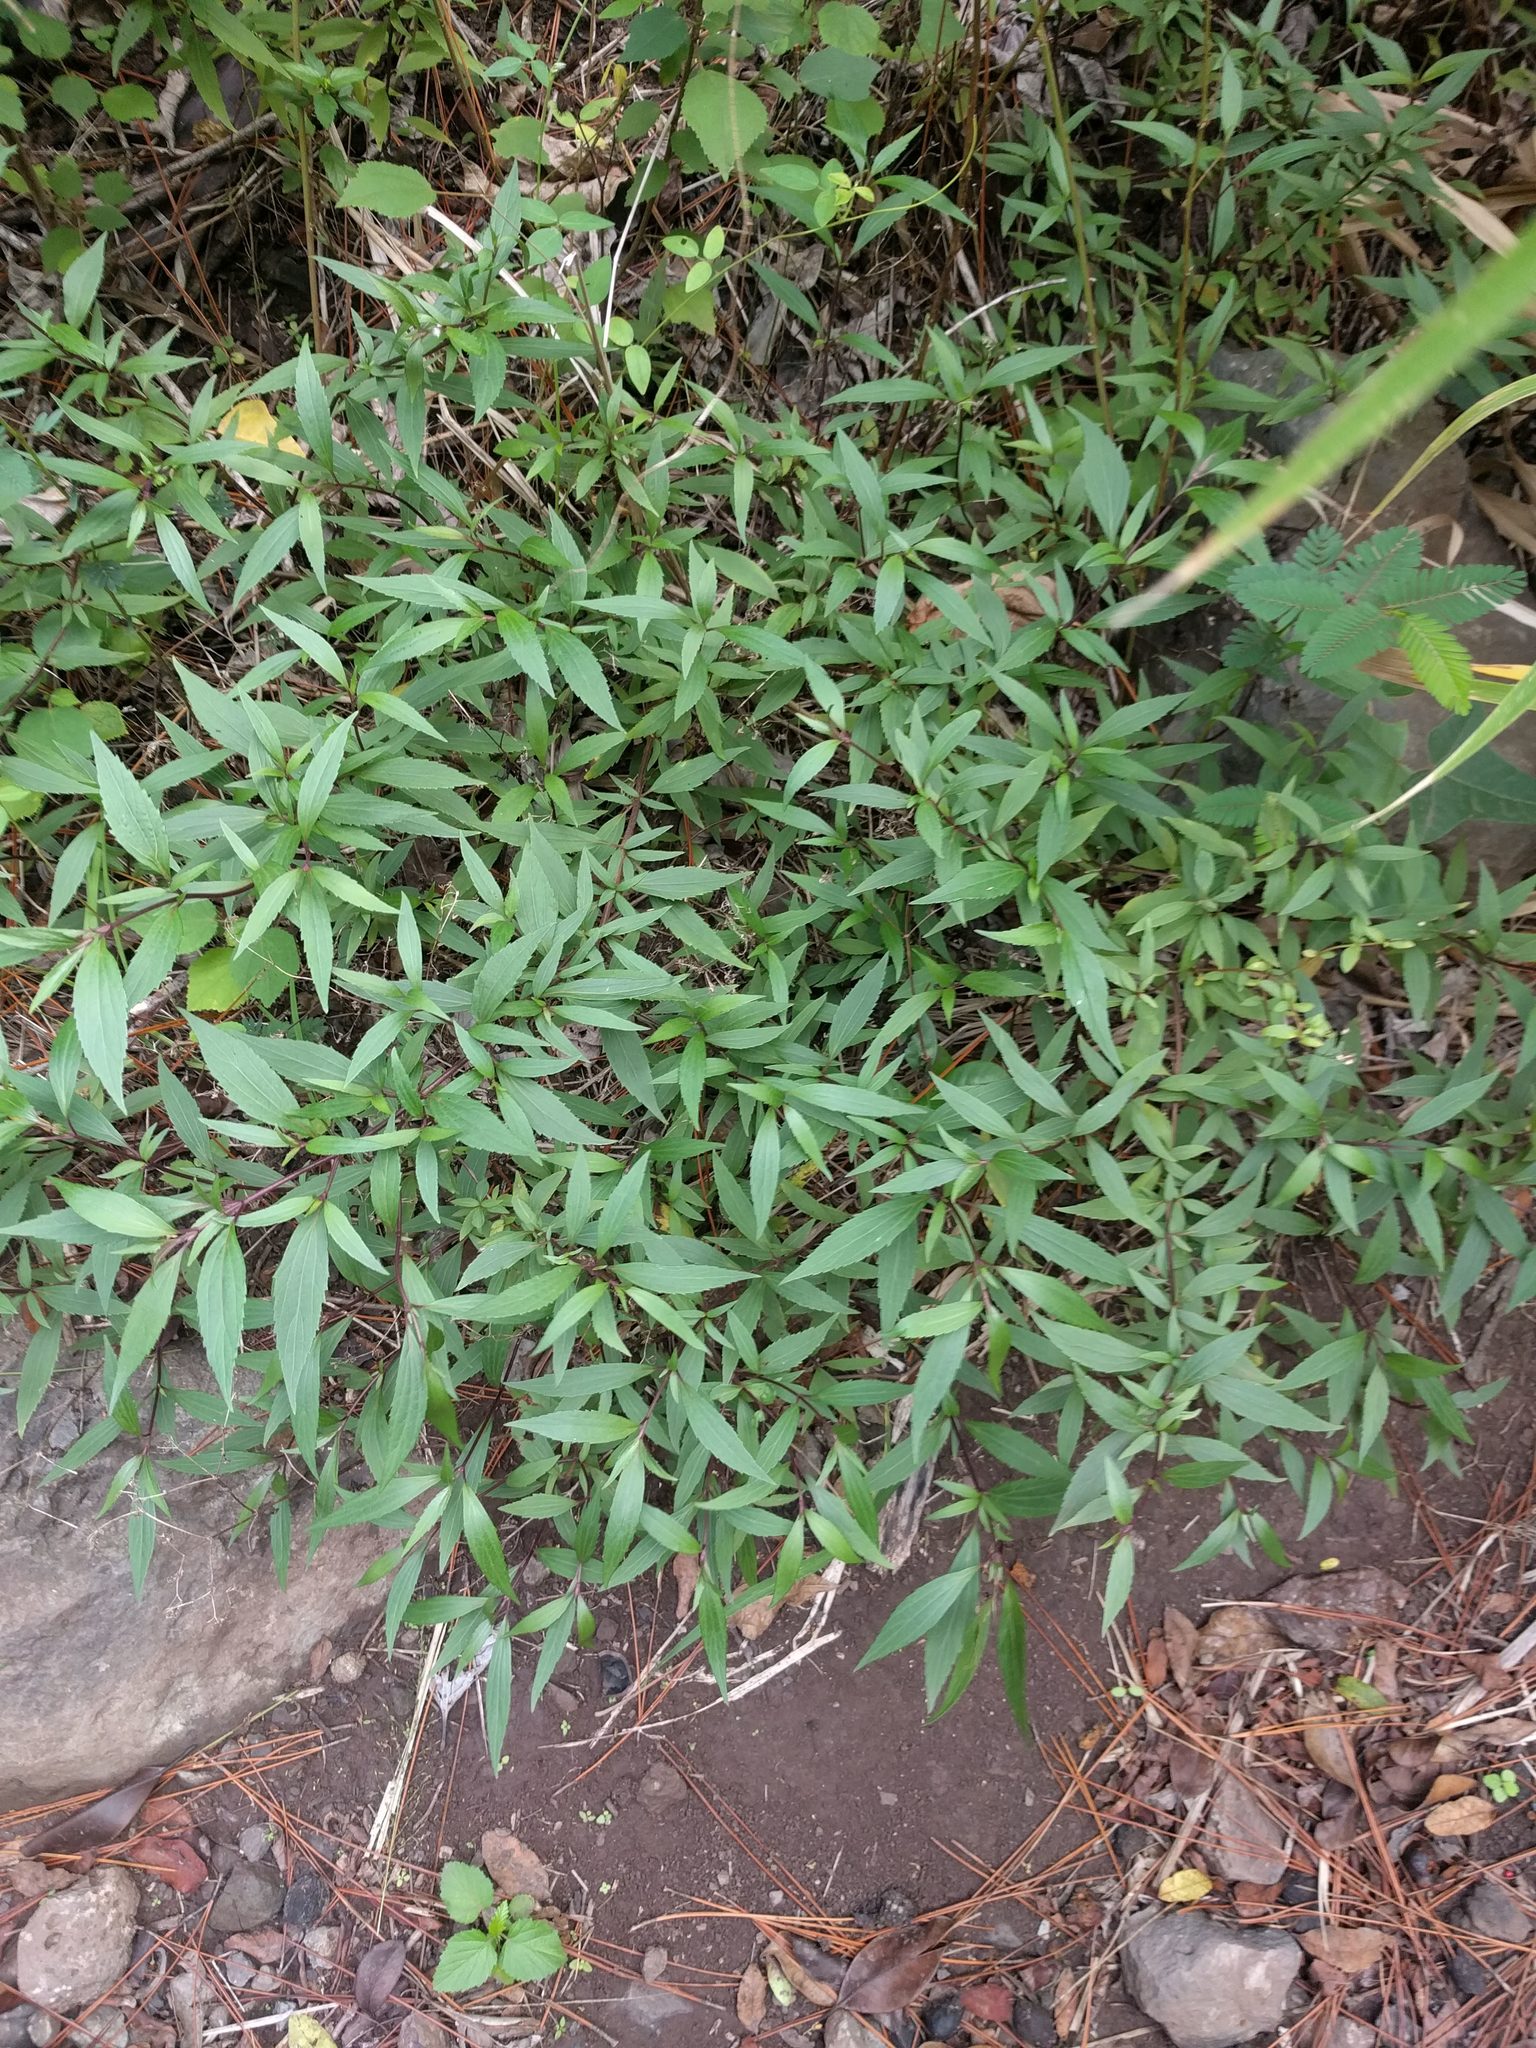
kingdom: Plantae
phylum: Tracheophyta
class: Magnoliopsida
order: Asterales
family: Asteraceae
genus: Ageratina
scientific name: Ageratina riparia
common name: Creeping croftonweed
